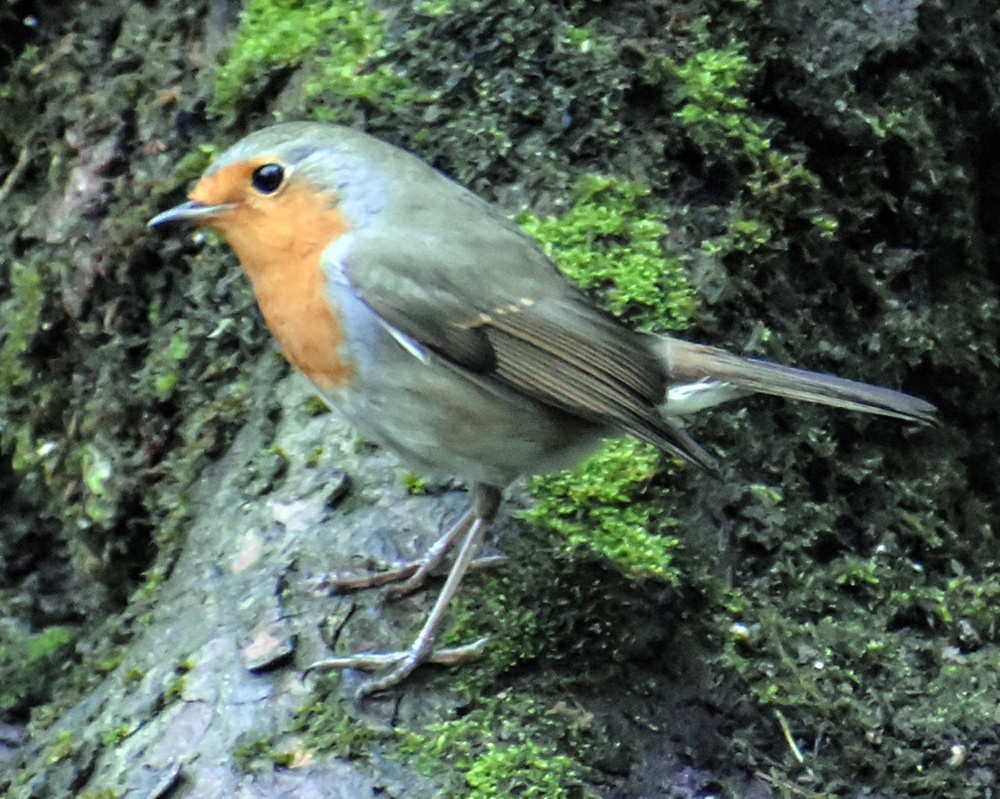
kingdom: Animalia
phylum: Chordata
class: Aves
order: Passeriformes
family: Muscicapidae
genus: Erithacus
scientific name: Erithacus rubecula
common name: European robin
